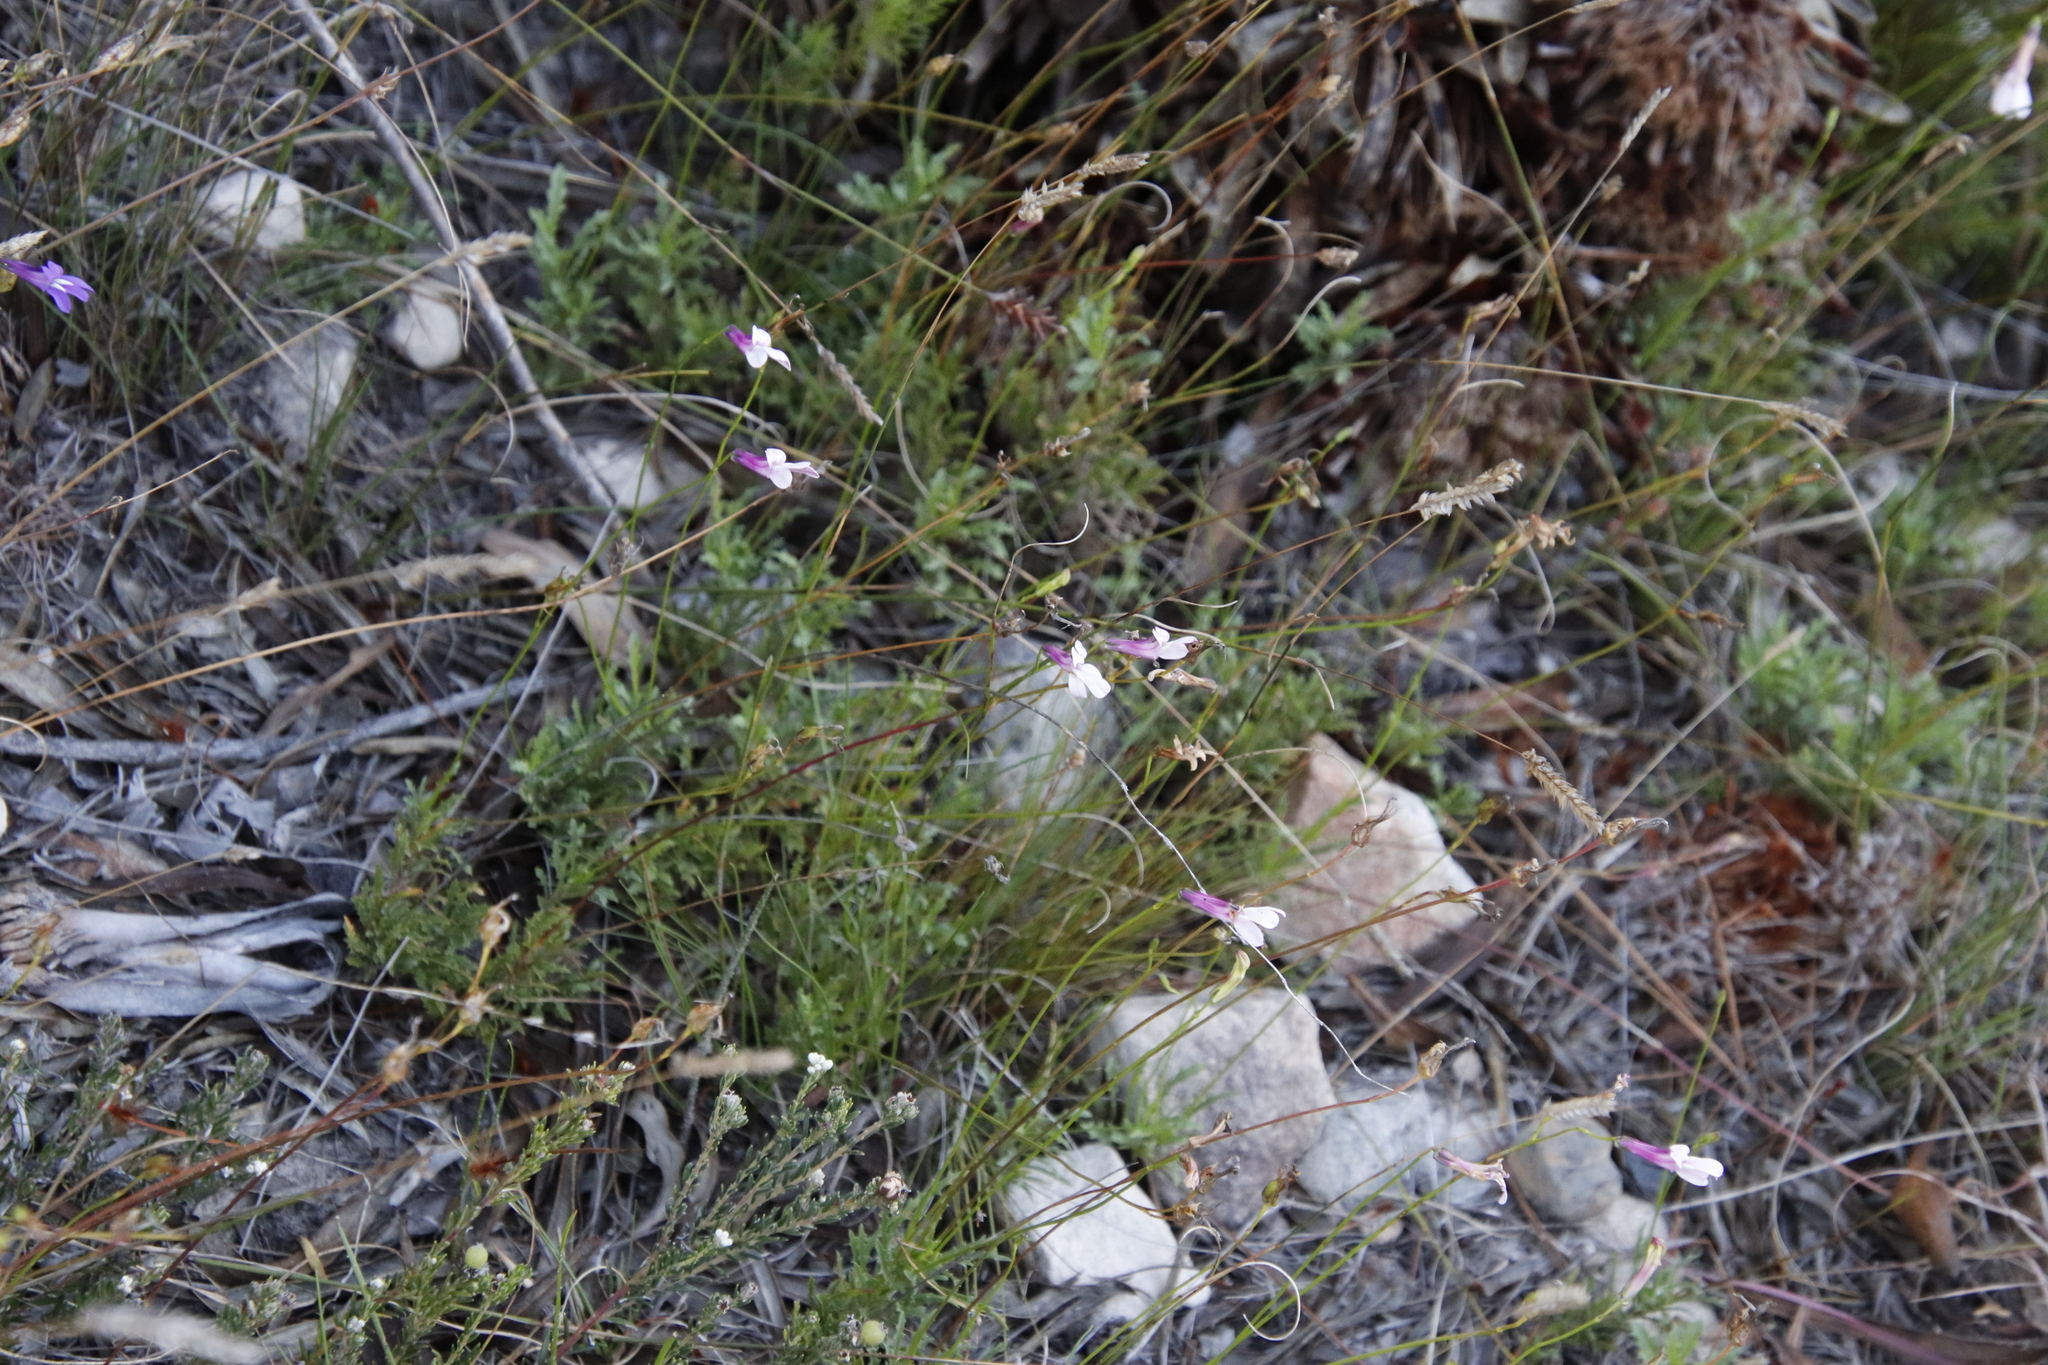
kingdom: Plantae
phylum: Tracheophyta
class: Magnoliopsida
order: Asterales
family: Campanulaceae
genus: Lobelia
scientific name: Lobelia coronopifolia
